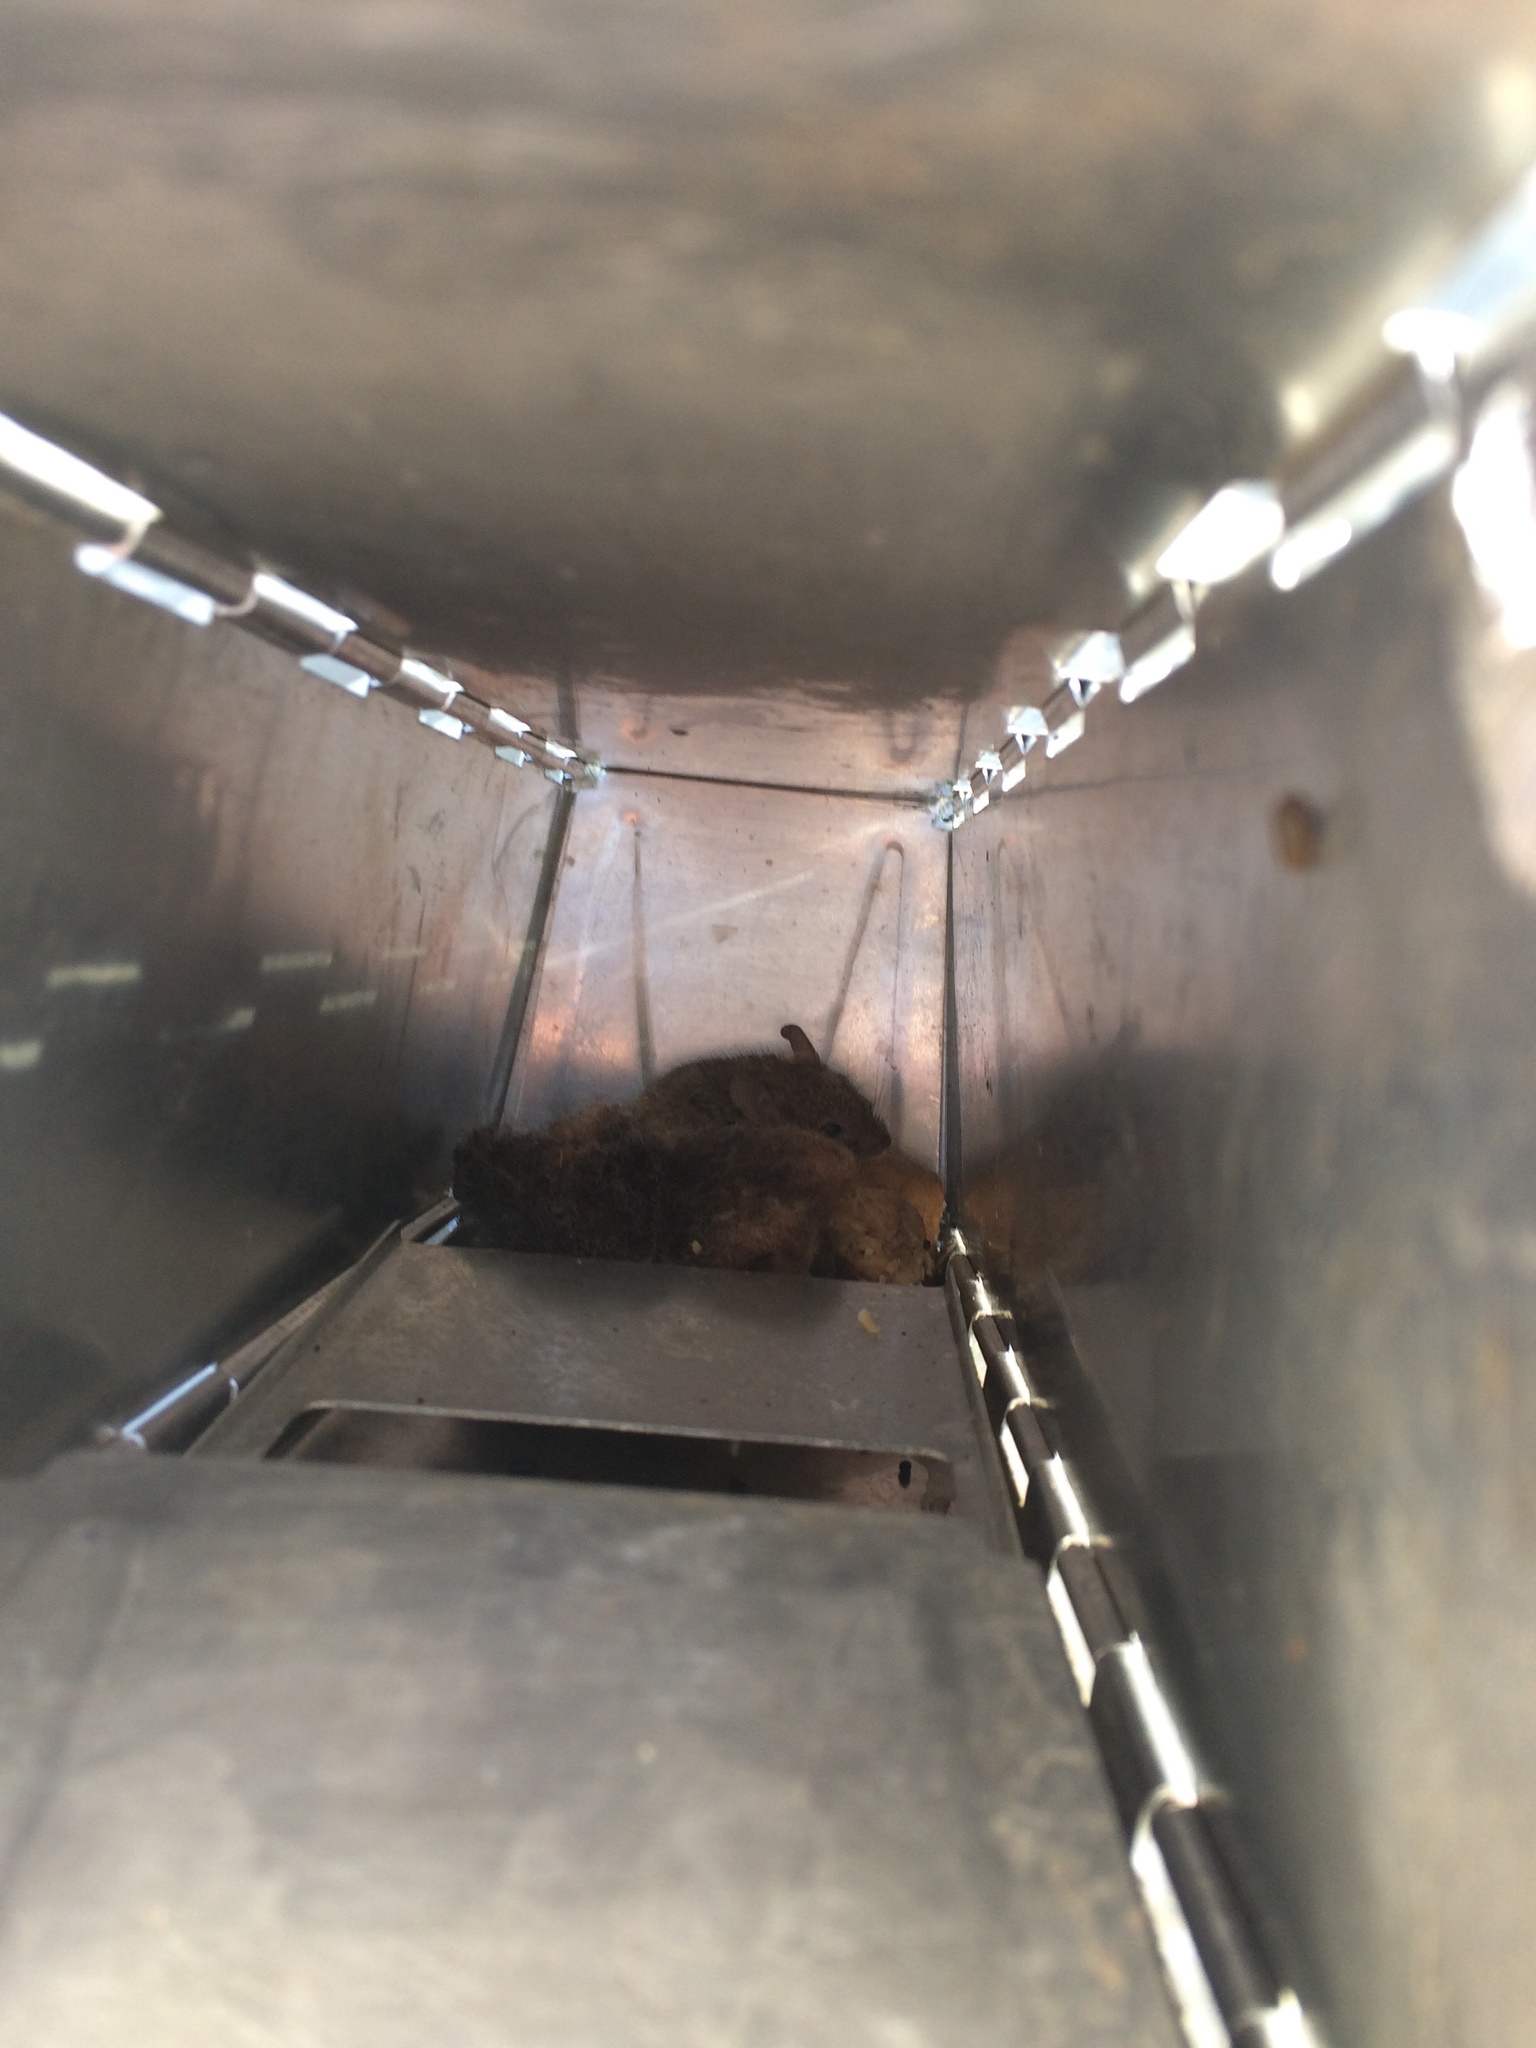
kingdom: Animalia
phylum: Chordata
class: Mammalia
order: Rodentia
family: Muridae
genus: Mus
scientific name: Mus musculus
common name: House mouse
